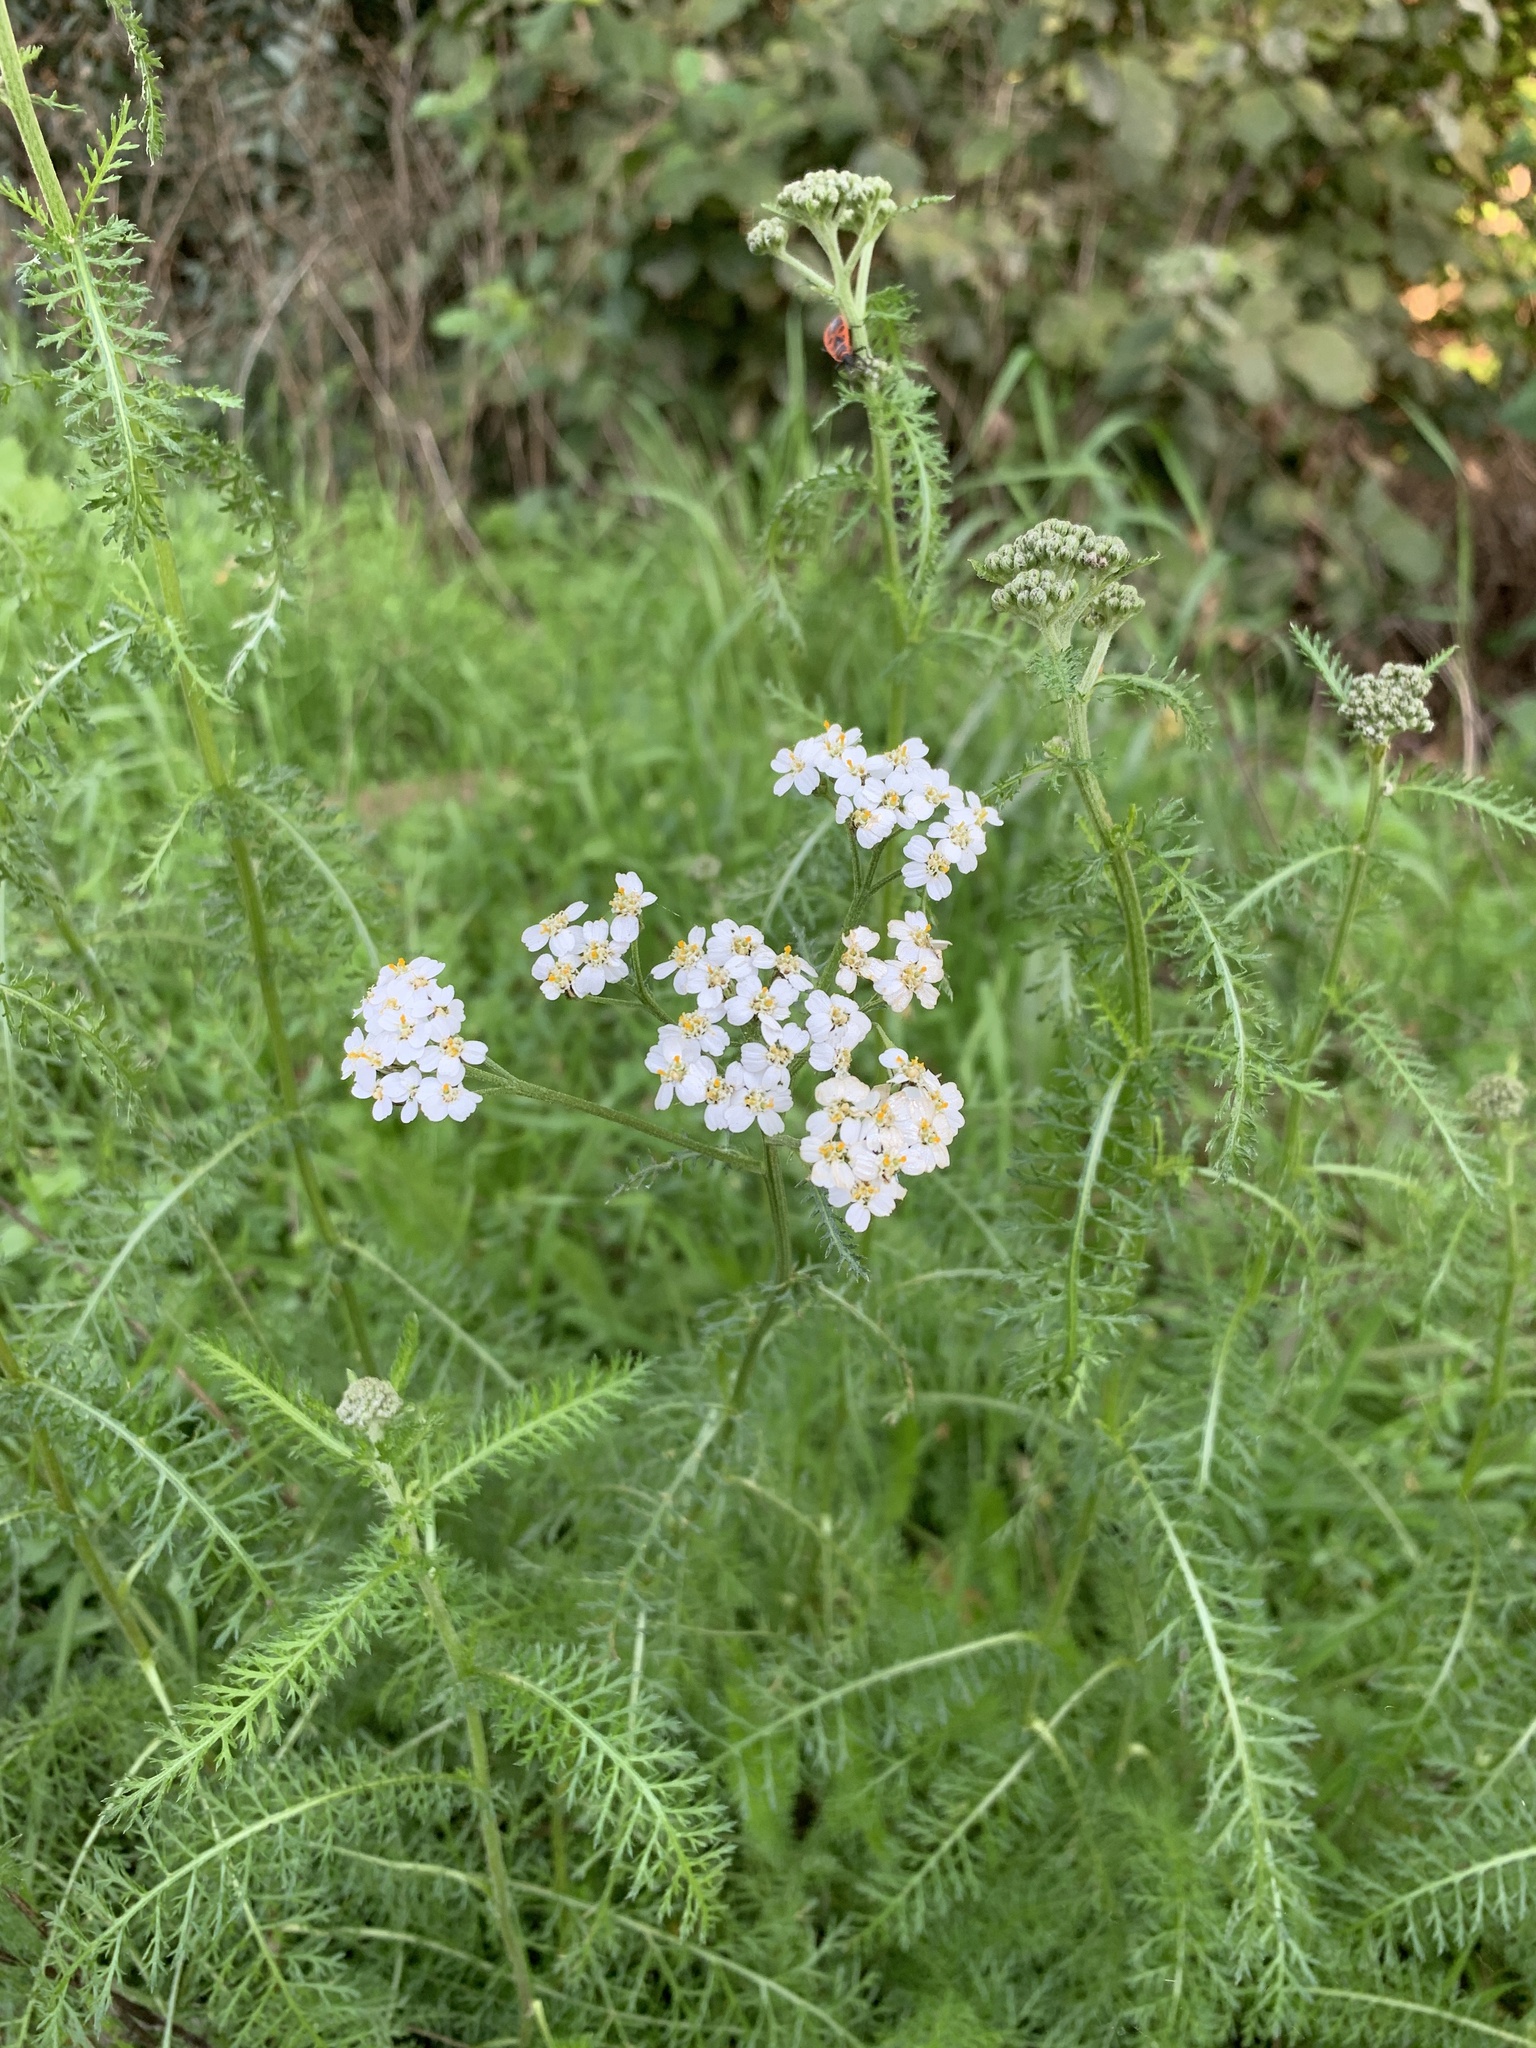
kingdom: Plantae
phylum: Tracheophyta
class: Magnoliopsida
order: Asterales
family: Asteraceae
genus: Achillea
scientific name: Achillea millefolium
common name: Yarrow
